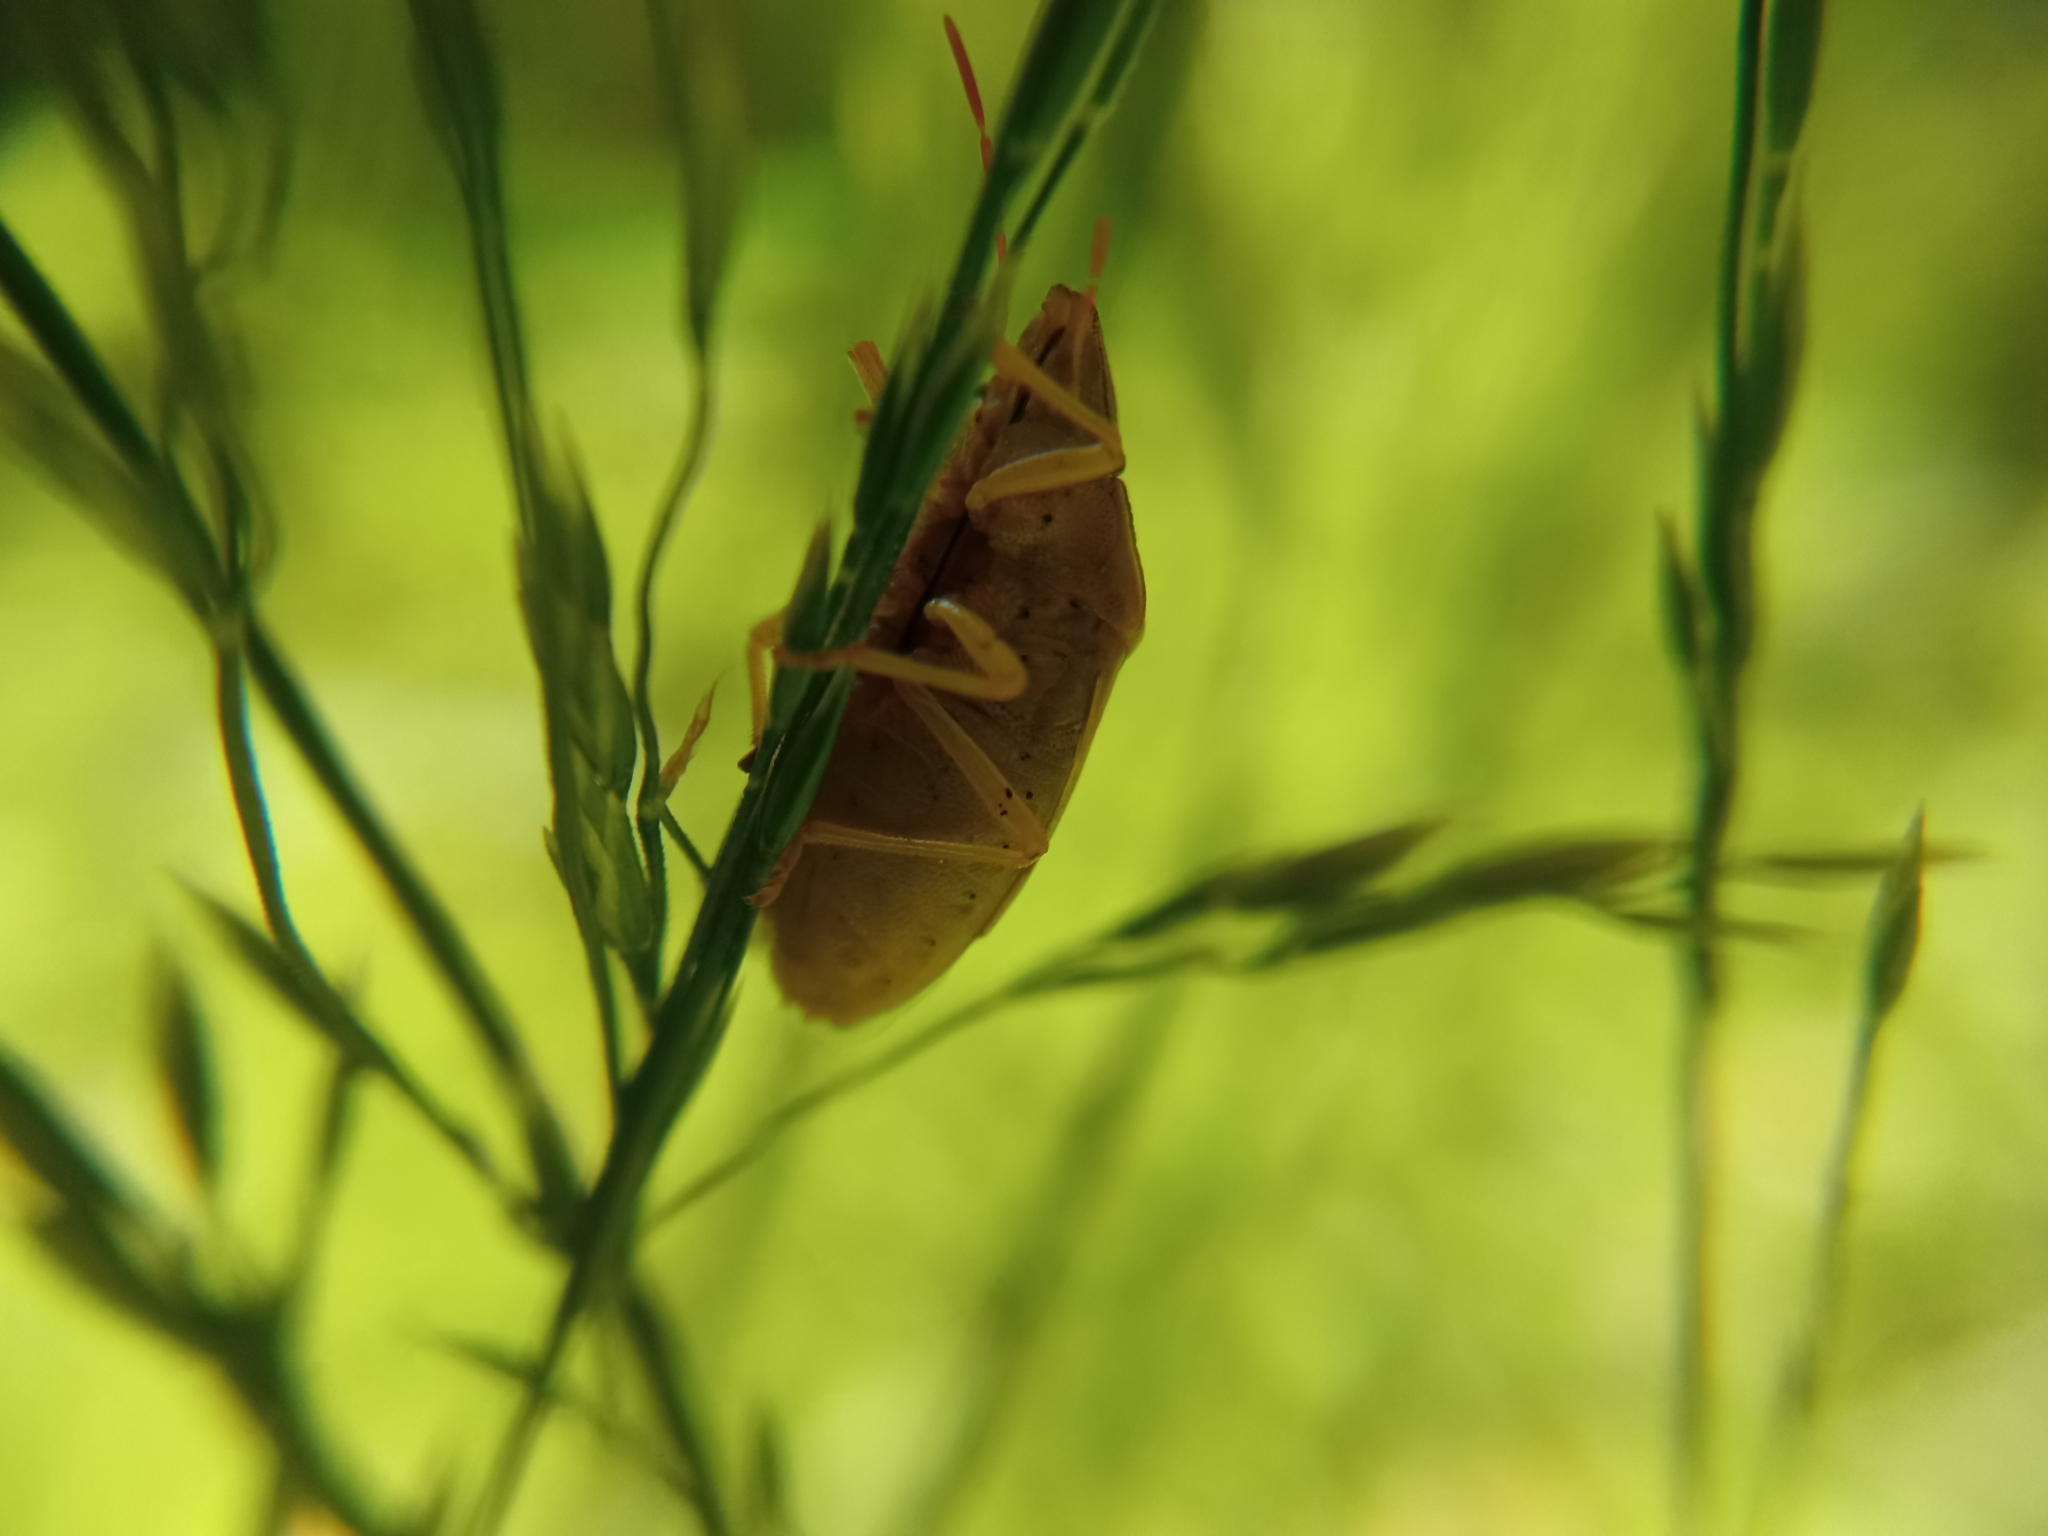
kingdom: Animalia
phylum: Arthropoda
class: Insecta
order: Hemiptera
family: Pentatomidae
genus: Aelia
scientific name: Aelia acuminata
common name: Bishop's mitre
